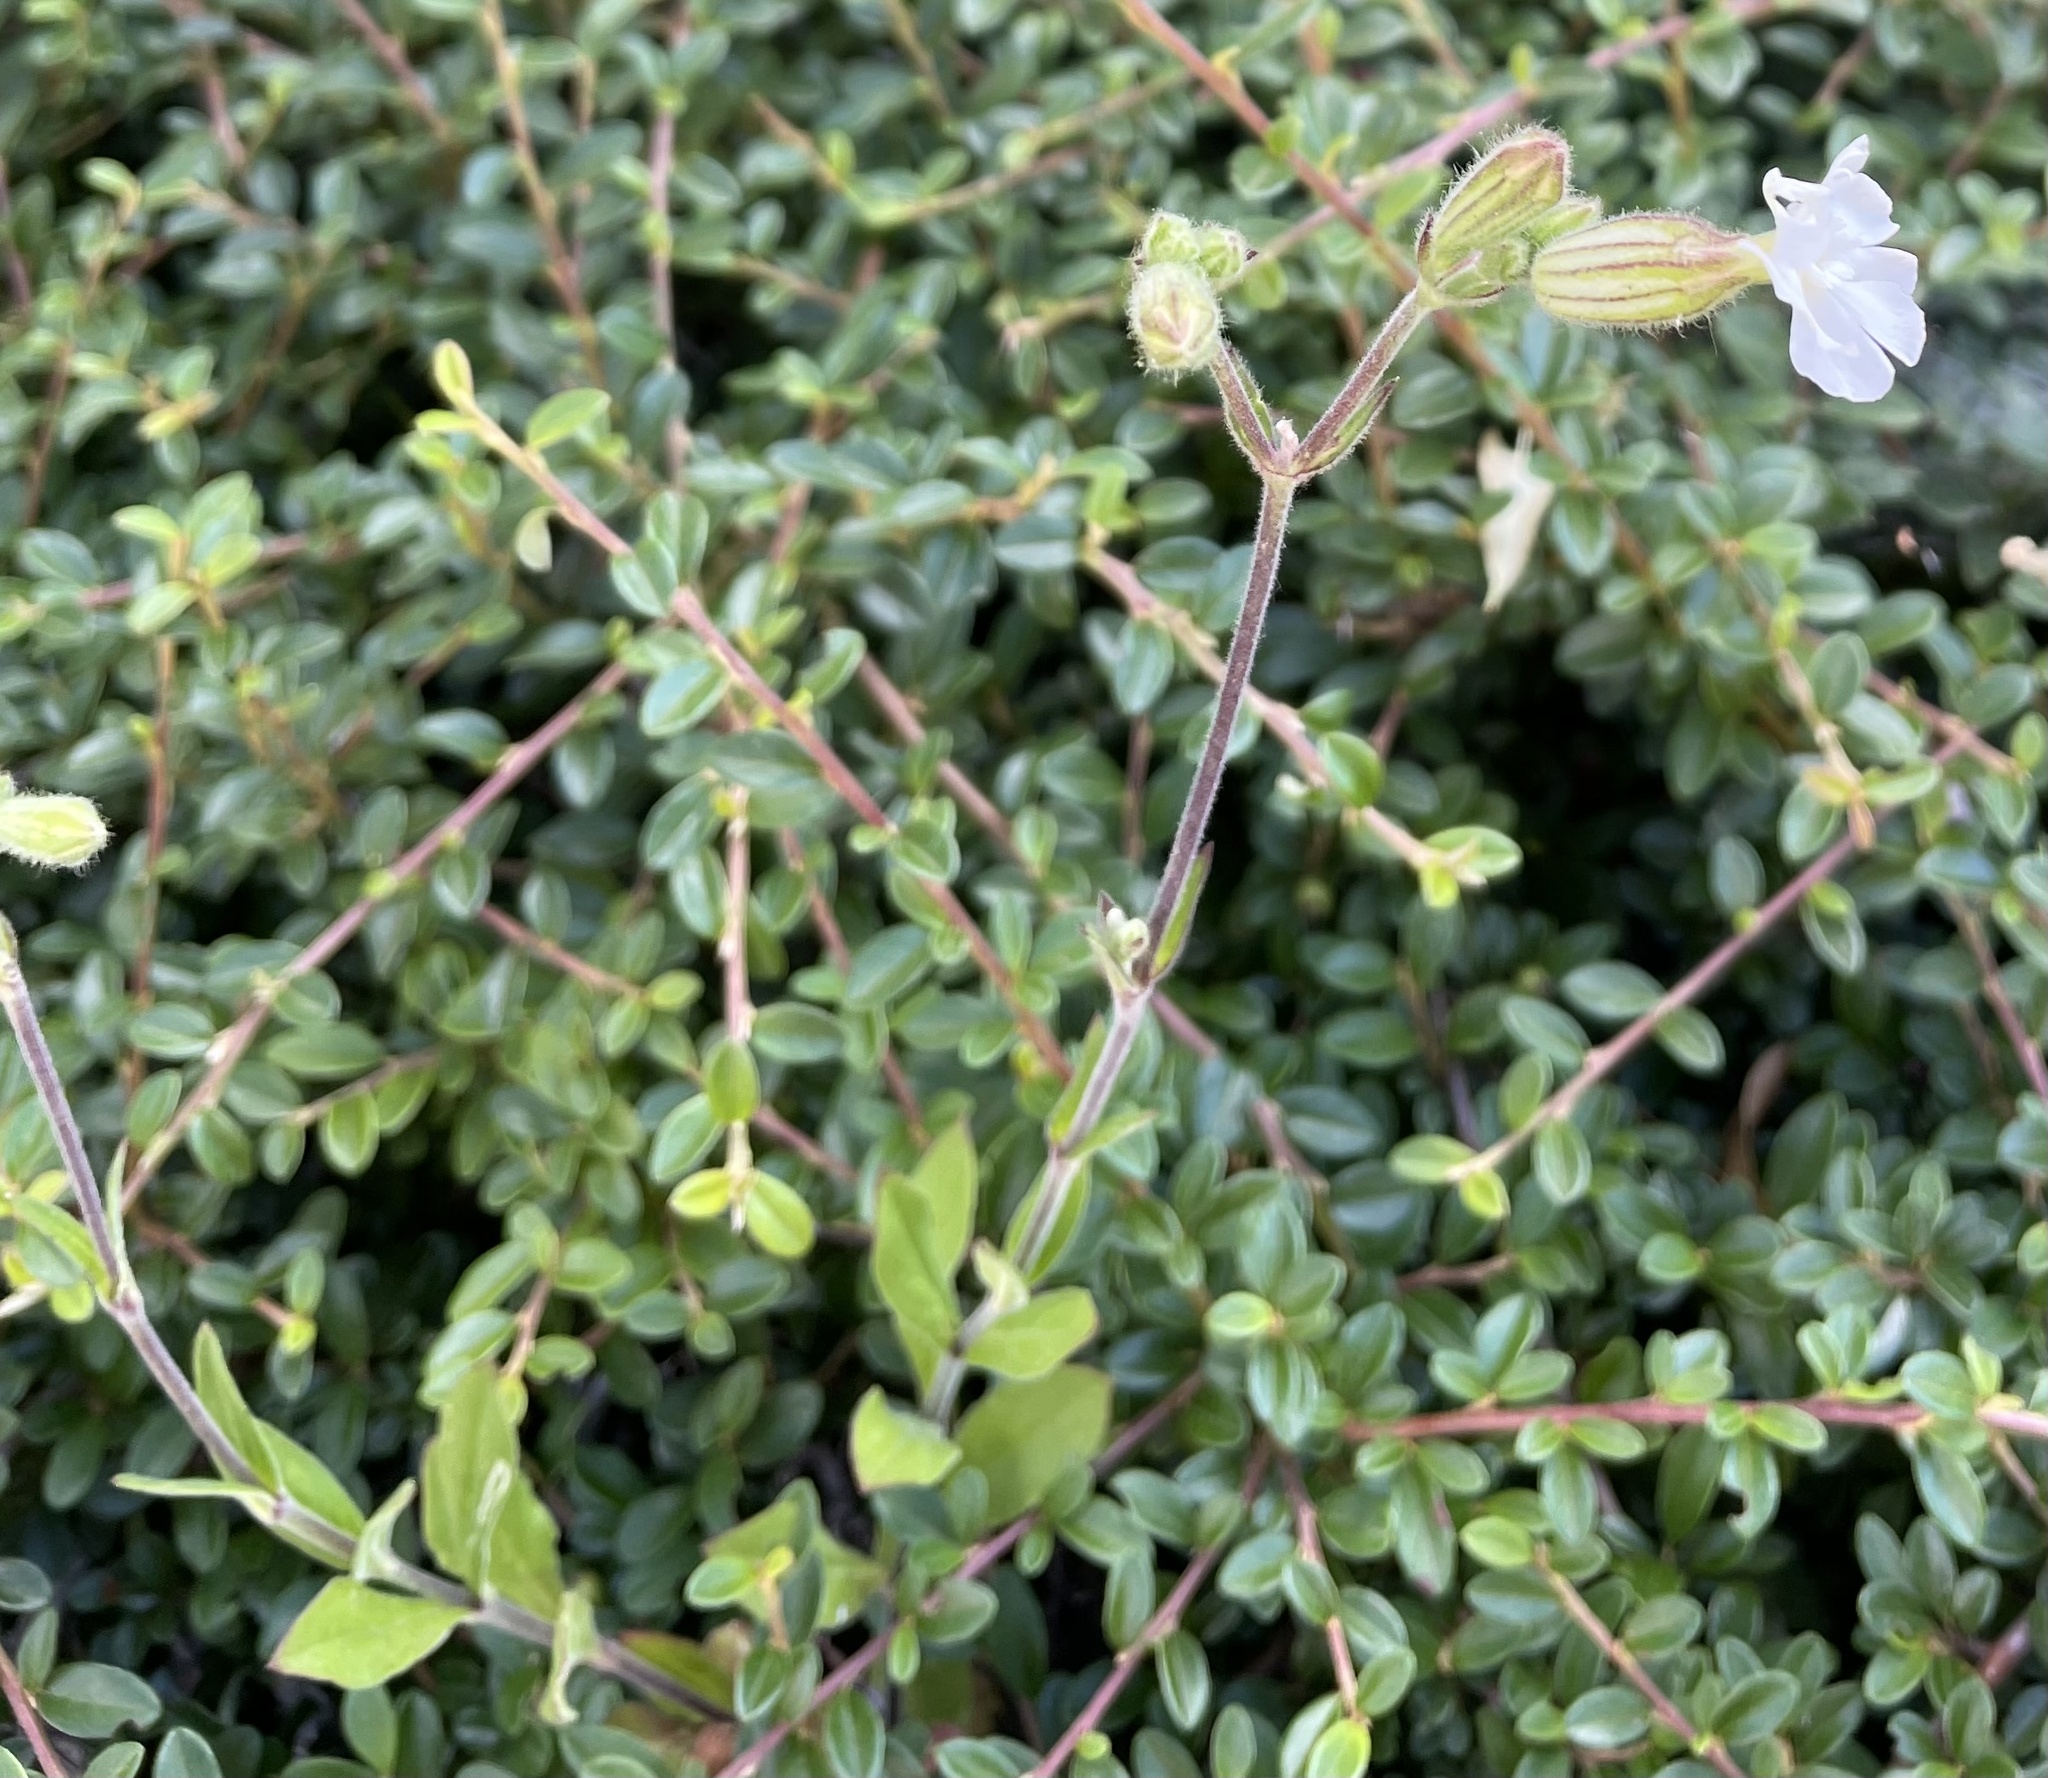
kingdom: Plantae
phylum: Tracheophyta
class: Magnoliopsida
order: Caryophyllales
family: Caryophyllaceae
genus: Silene
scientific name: Silene latifolia
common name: White campion
